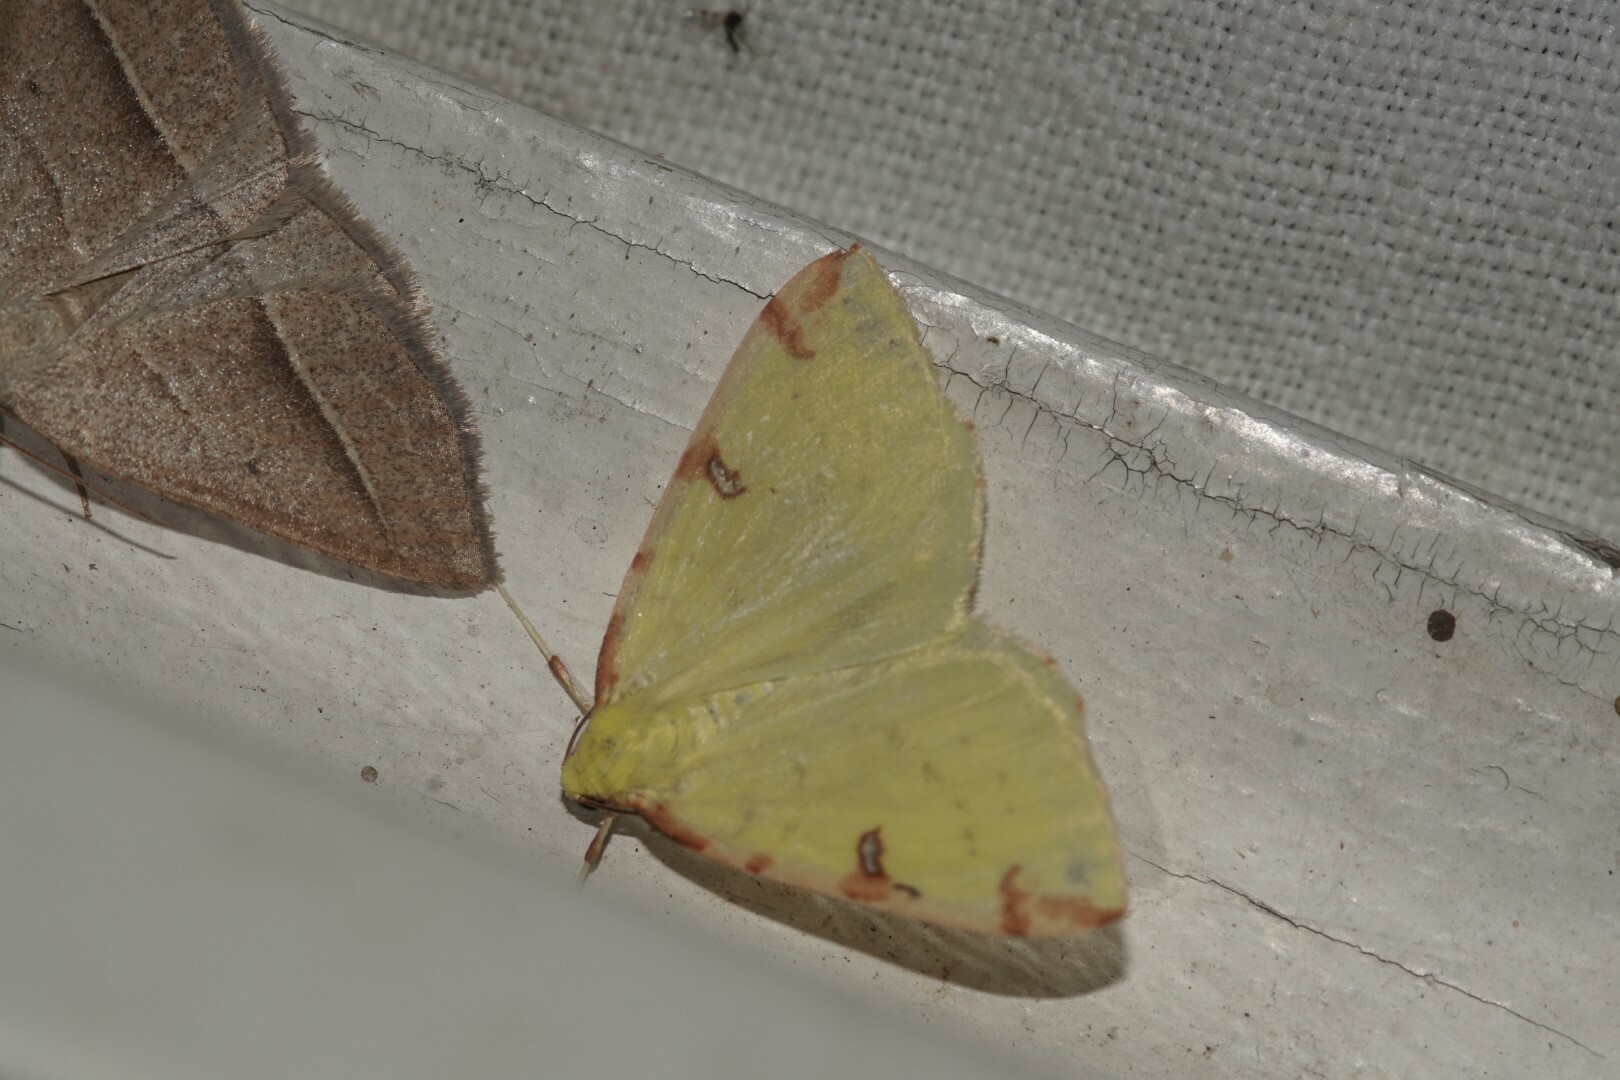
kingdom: Animalia
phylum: Arthropoda
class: Insecta
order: Lepidoptera
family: Geometridae
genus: Opisthograptis
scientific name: Opisthograptis luteolata
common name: Brimstone moth
